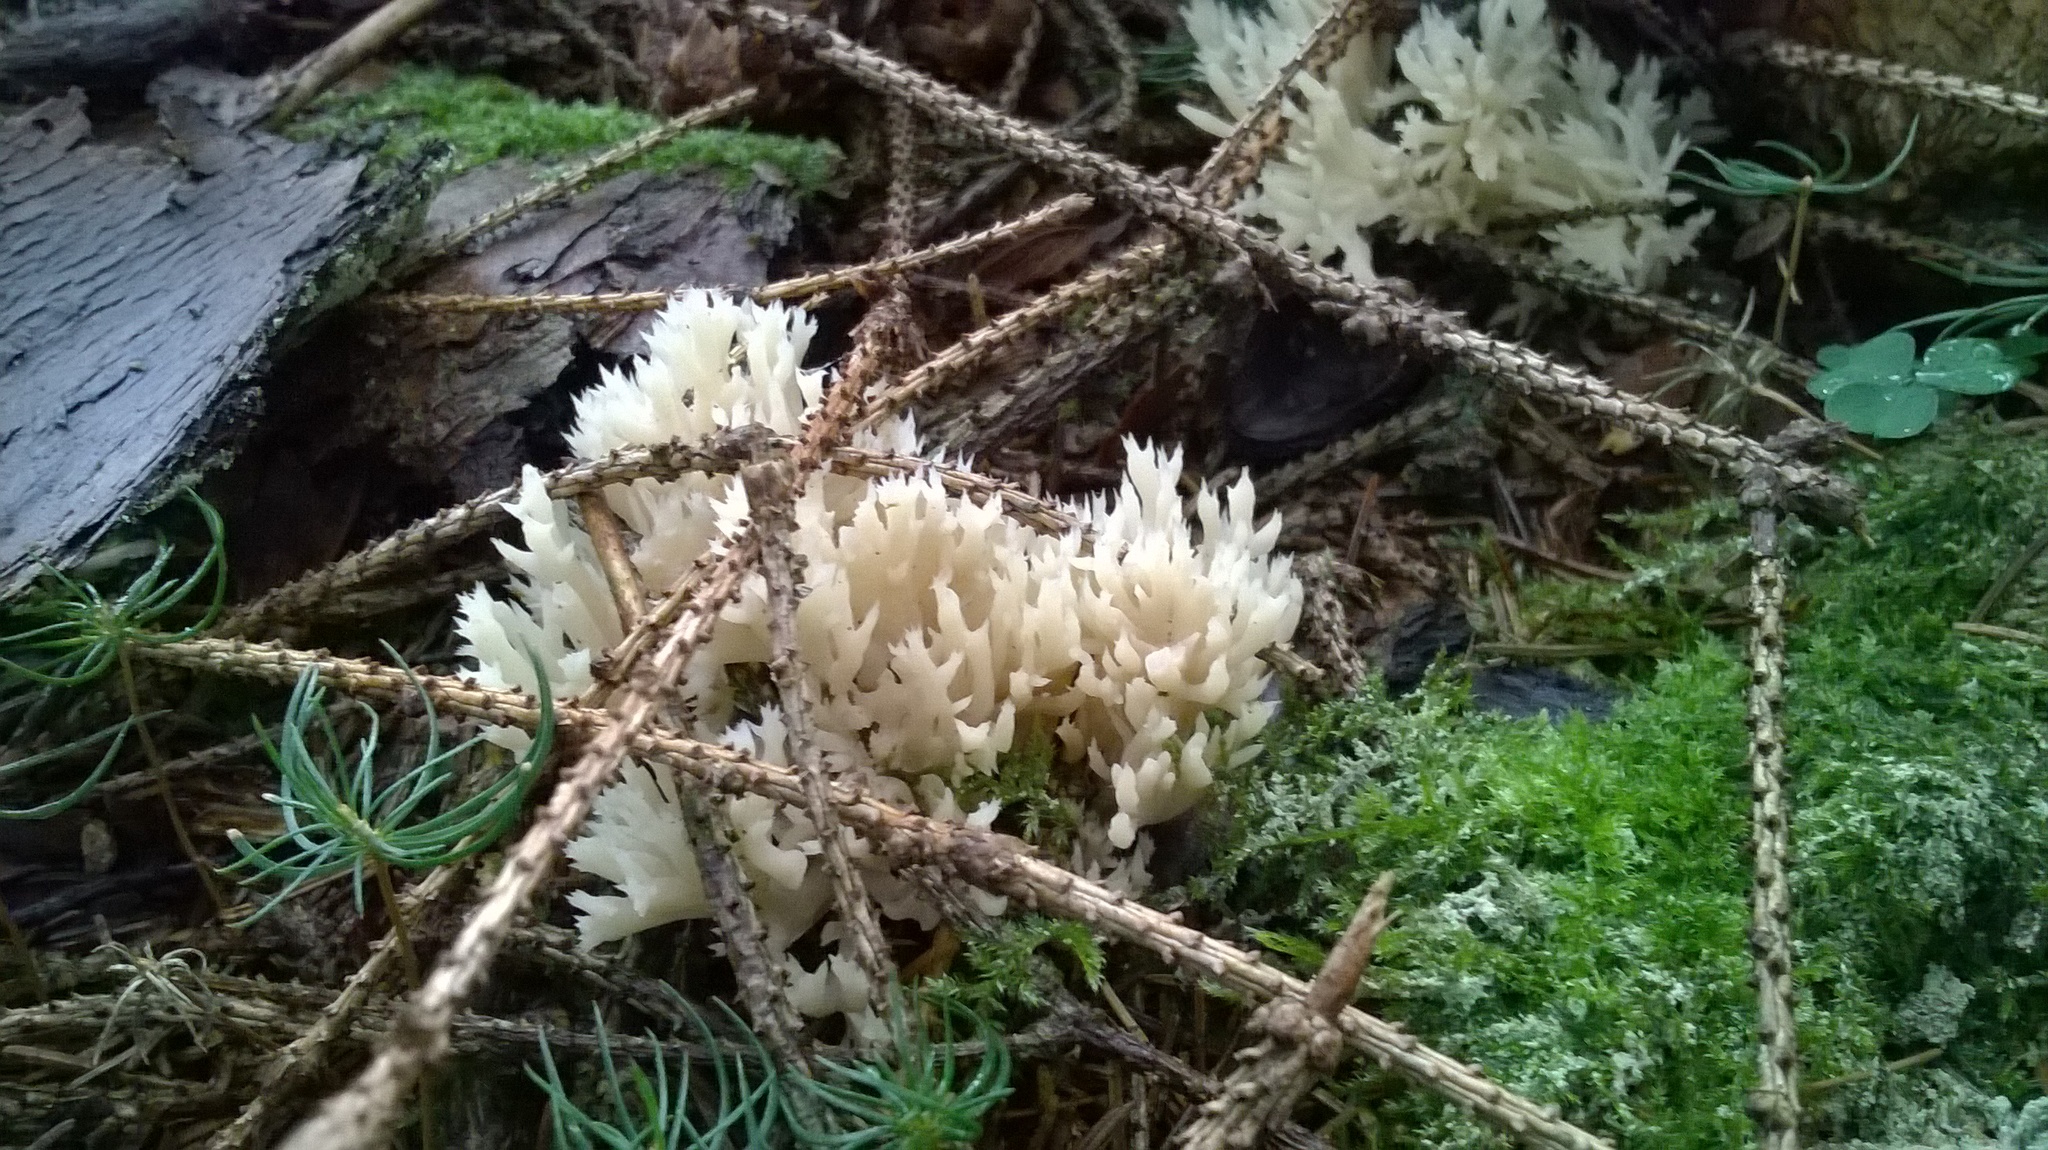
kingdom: Fungi
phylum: Basidiomycota
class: Agaricomycetes
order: Cantharellales
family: Hydnaceae
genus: Clavulina
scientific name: Clavulina coralloides
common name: Crested coral
